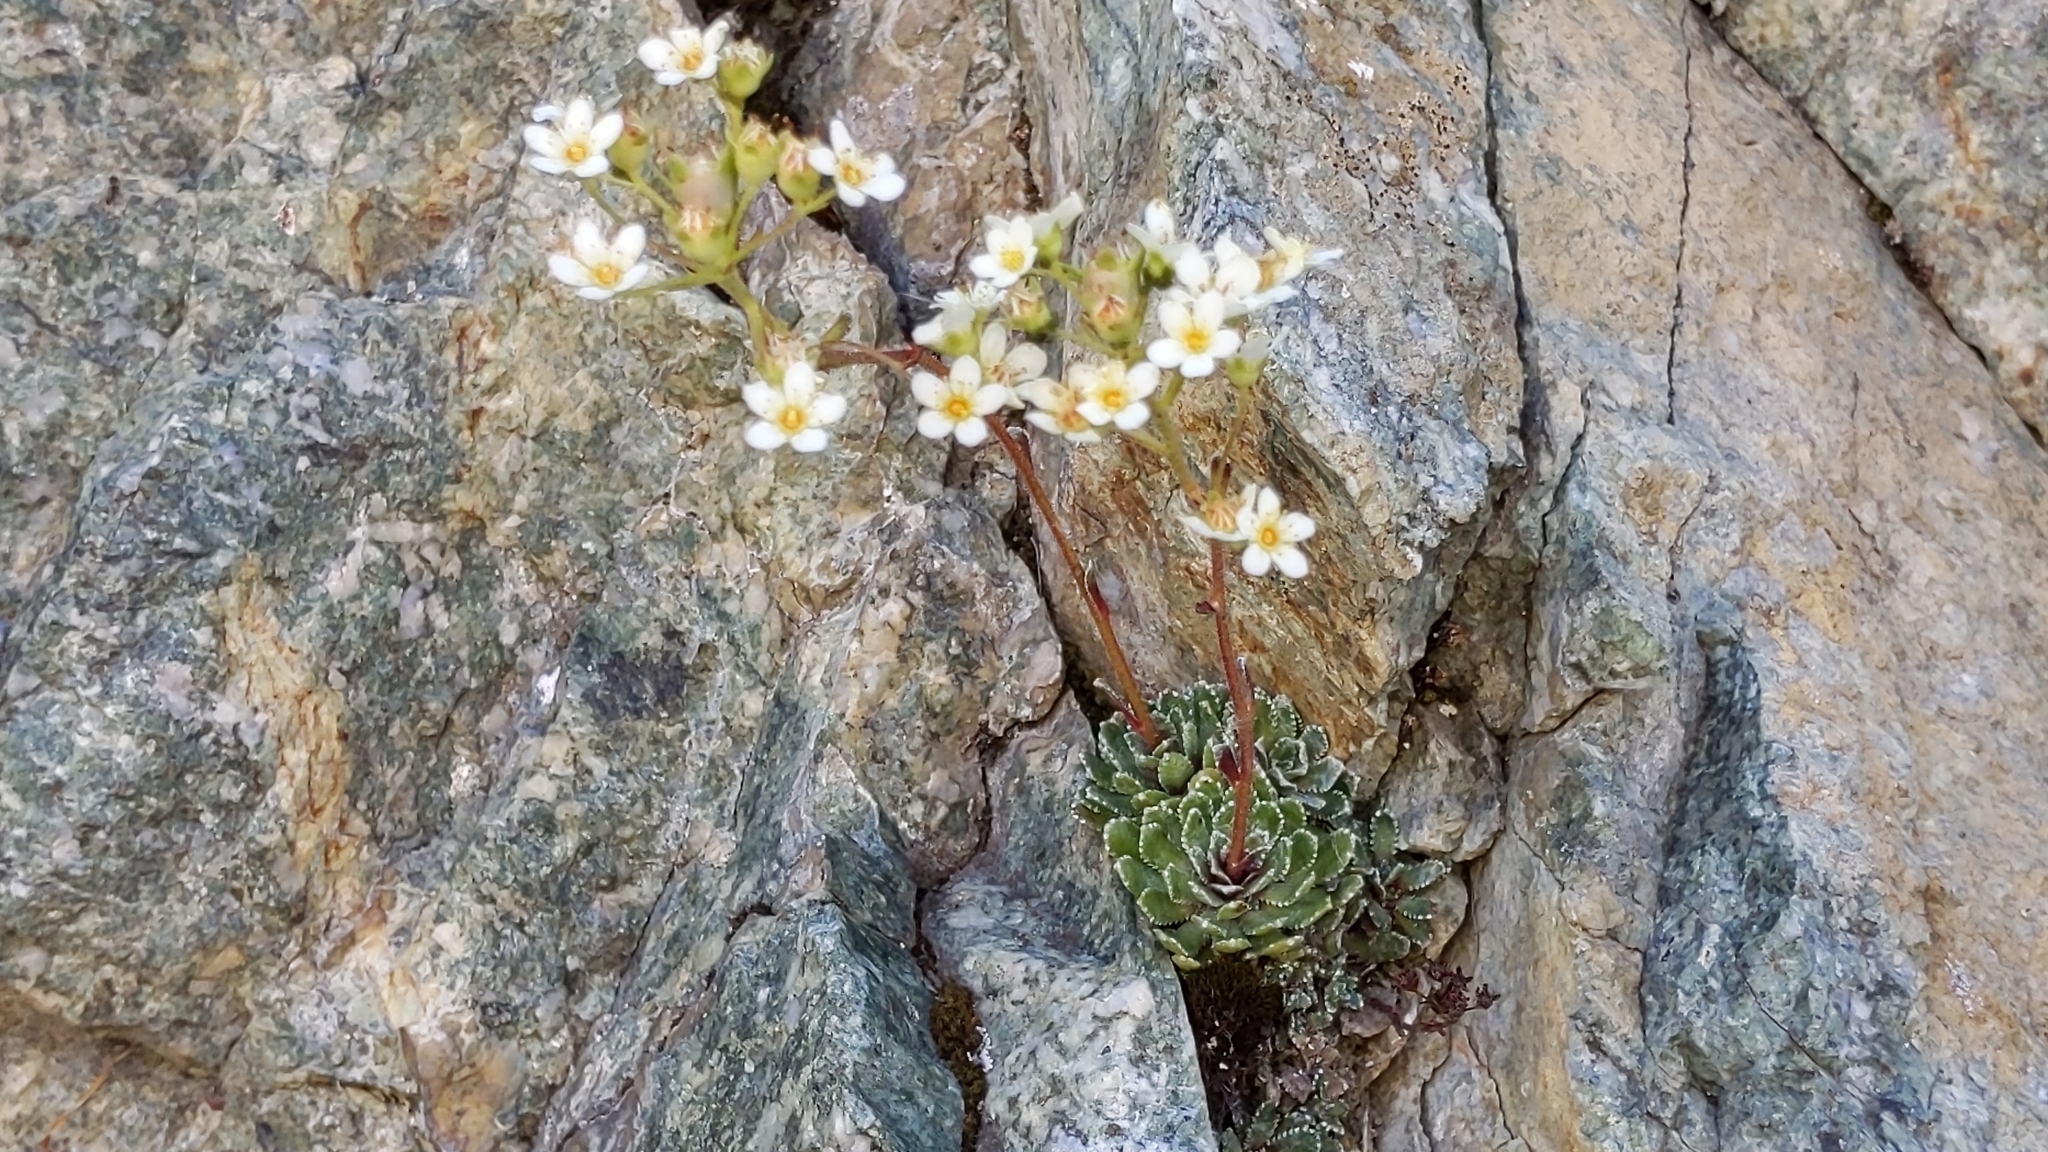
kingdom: Plantae
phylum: Tracheophyta
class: Magnoliopsida
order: Saxifragales
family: Saxifragaceae
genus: Saxifraga
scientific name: Saxifraga paniculata
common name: Livelong saxifrage
